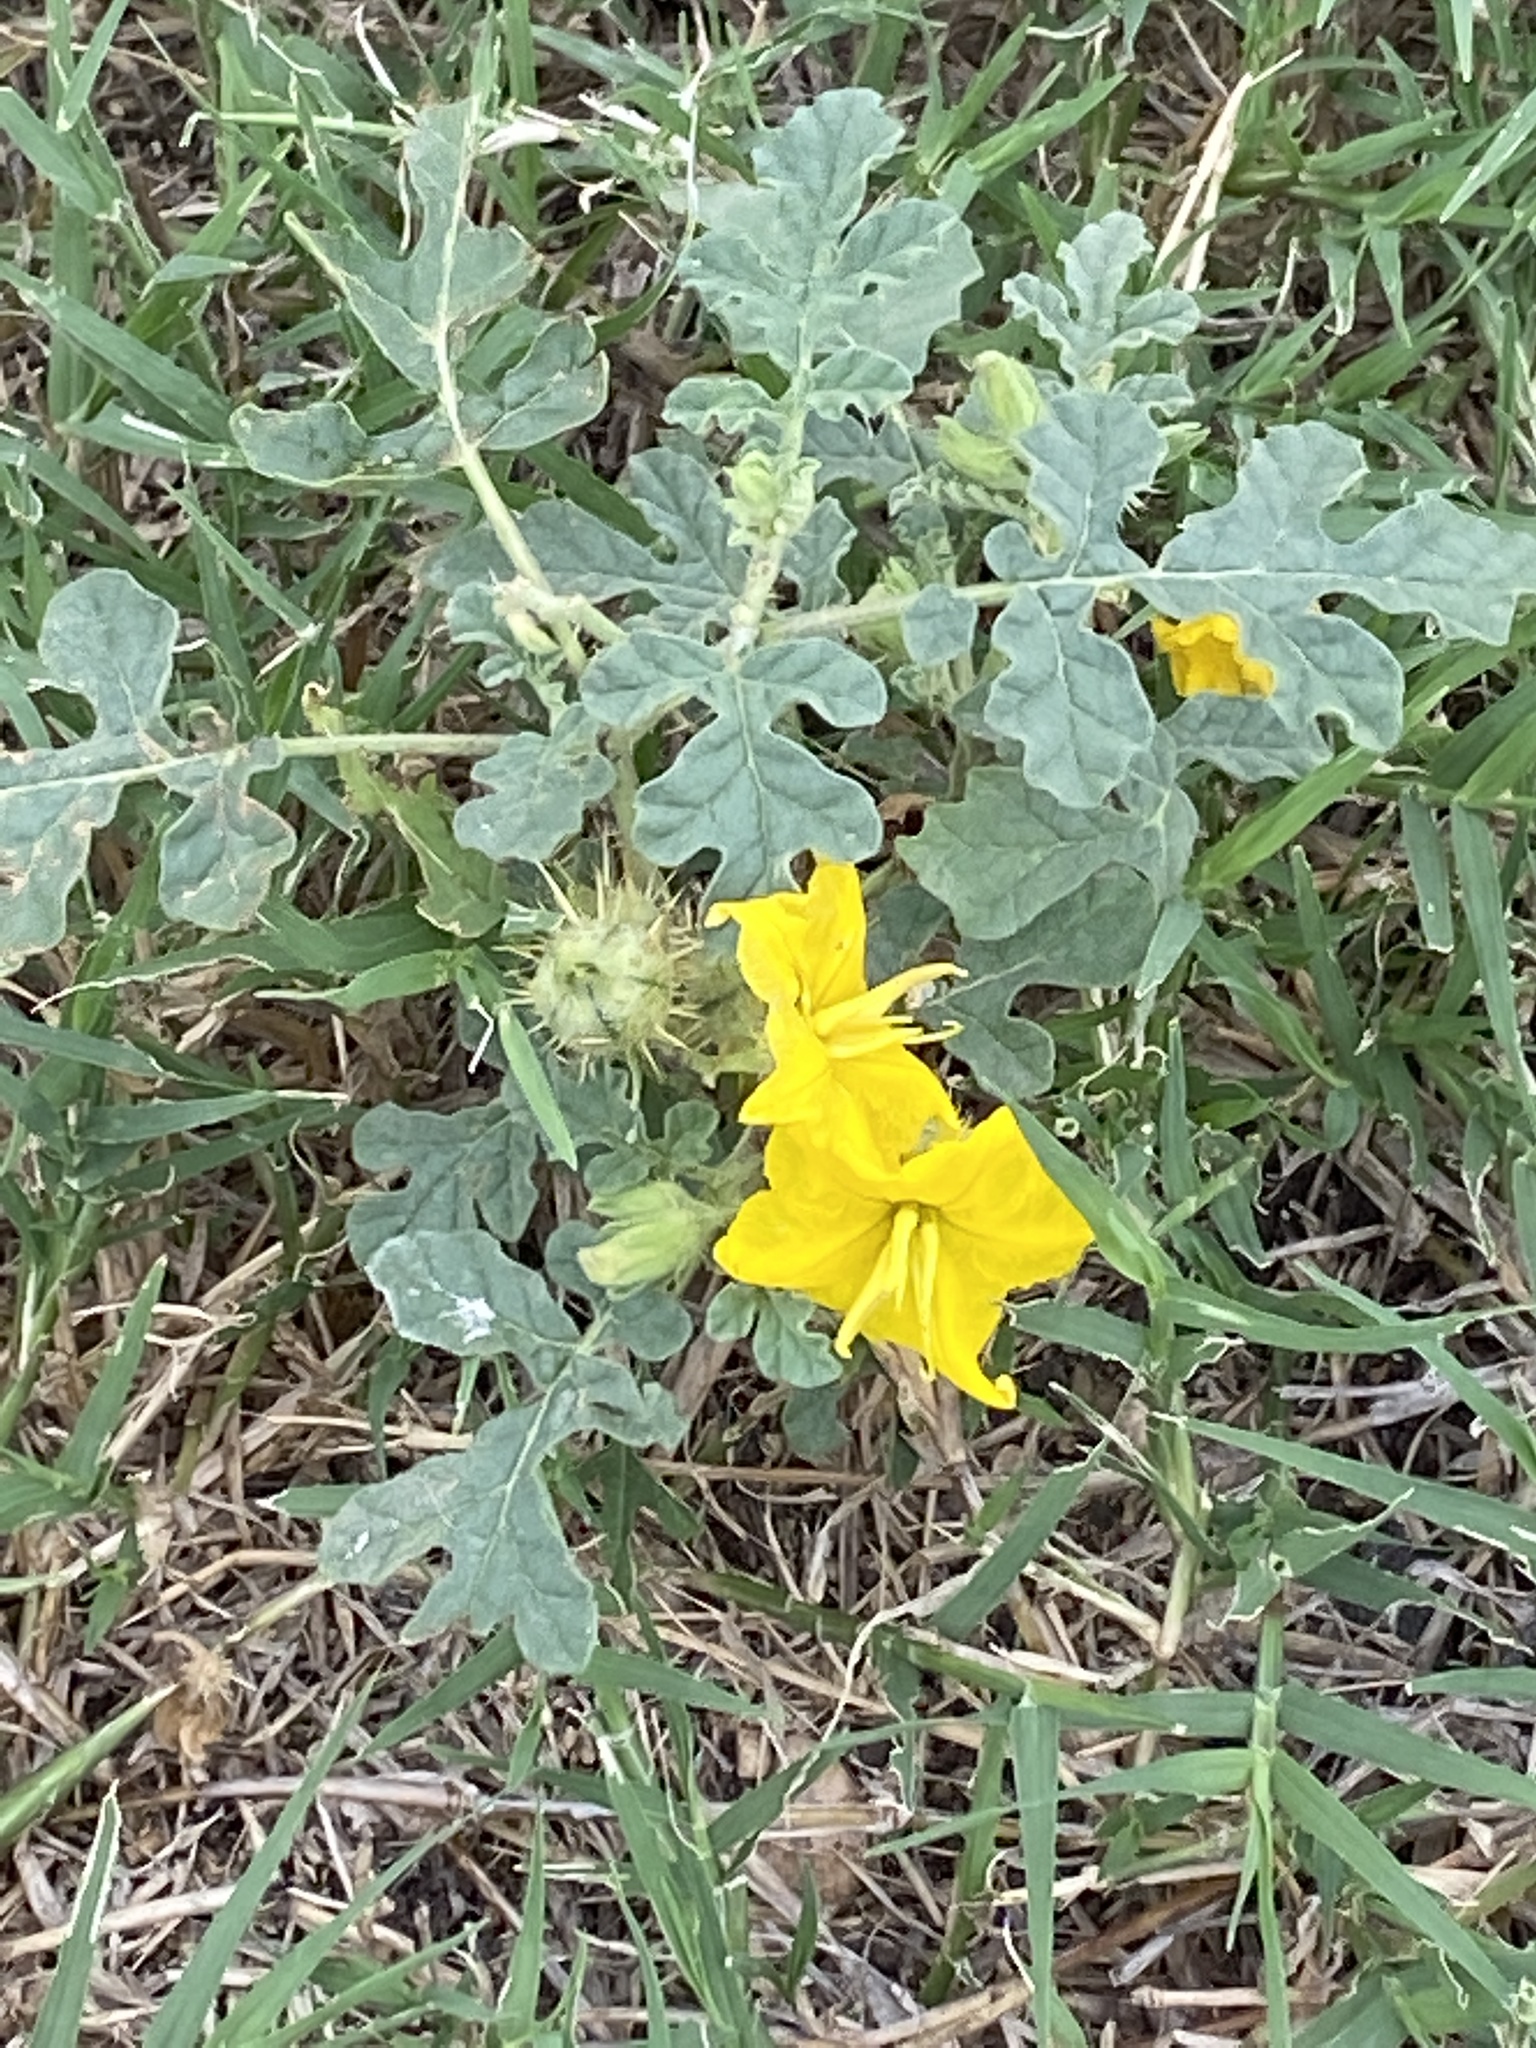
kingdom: Plantae
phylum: Tracheophyta
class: Magnoliopsida
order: Solanales
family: Solanaceae
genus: Solanum
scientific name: Solanum angustifolium
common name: Buffalobur nightshade
